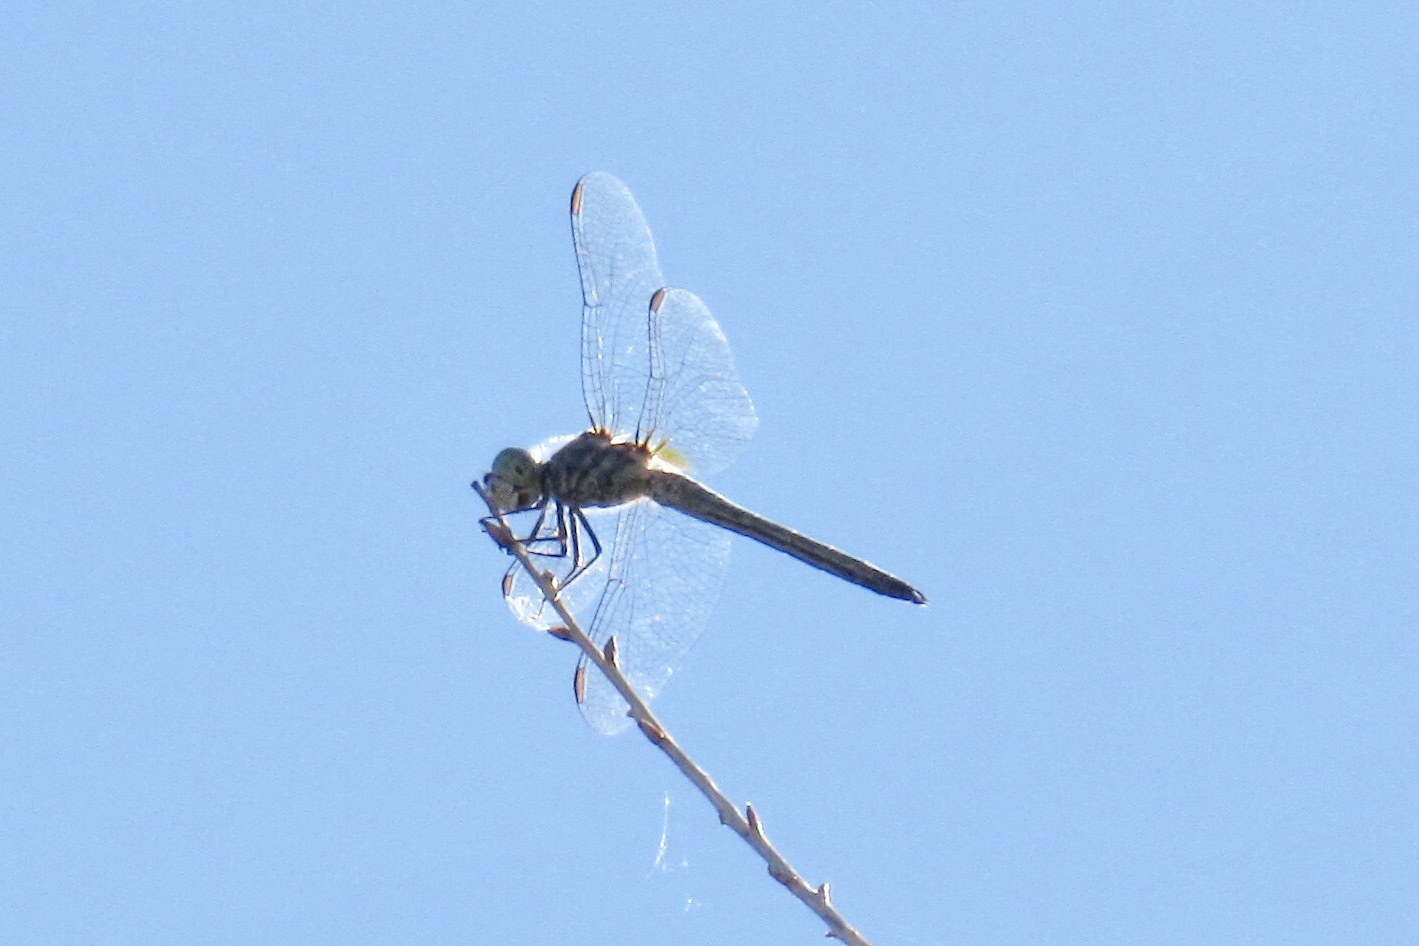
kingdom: Animalia
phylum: Arthropoda
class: Insecta
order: Odonata
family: Libellulidae
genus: Pachydiplax
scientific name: Pachydiplax longipennis
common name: Blue dasher
